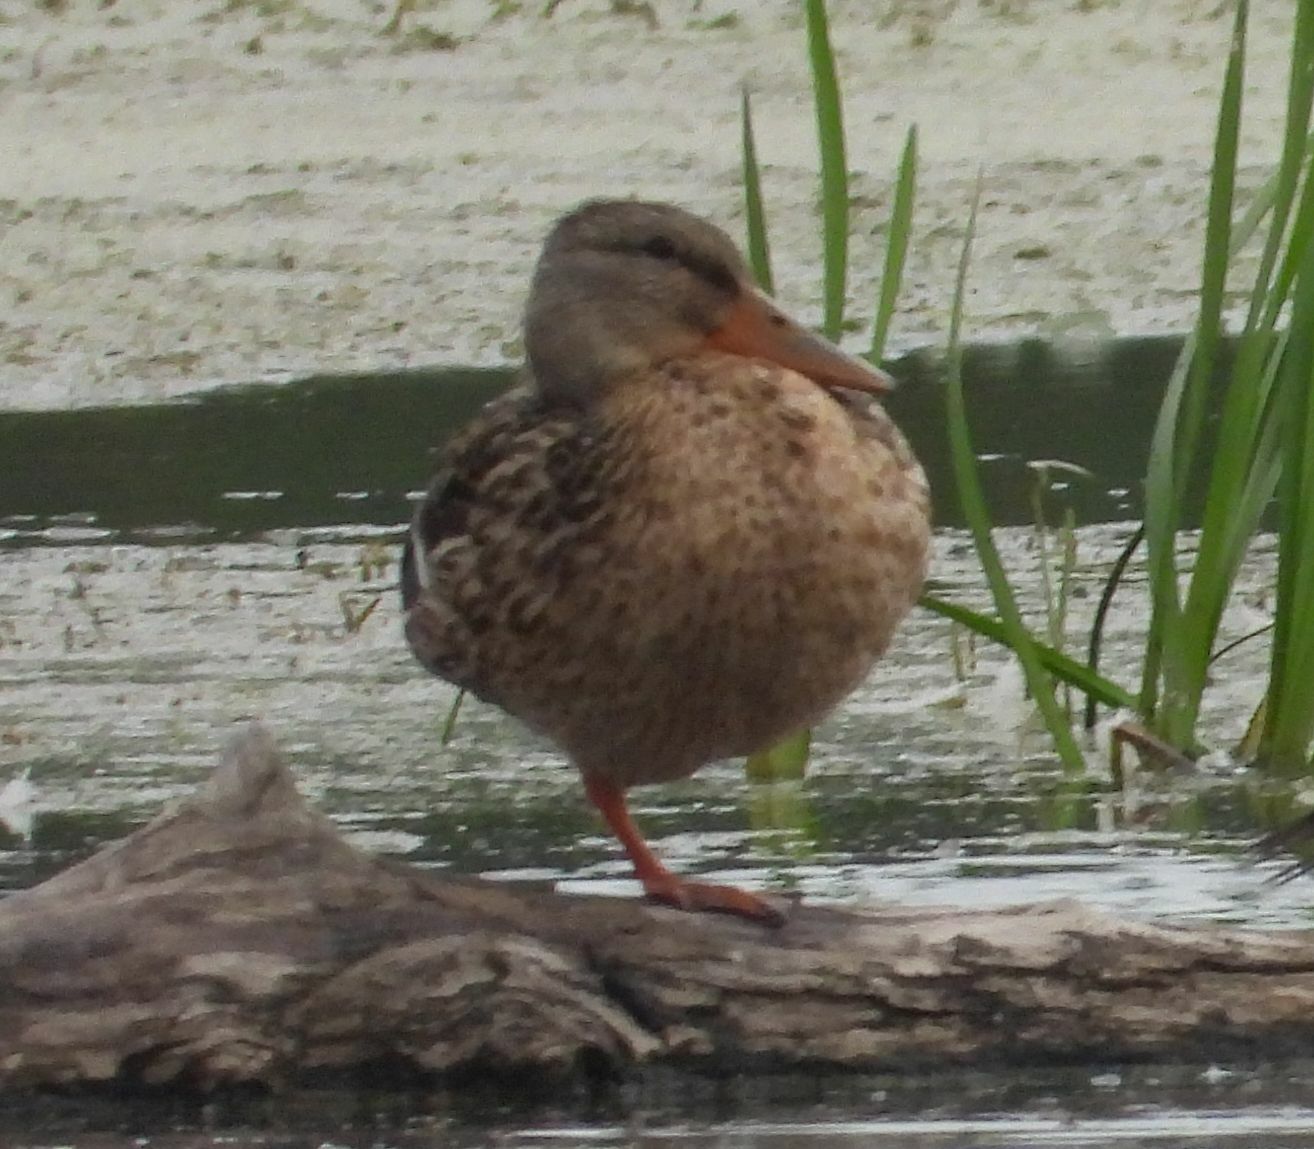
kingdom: Animalia
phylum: Chordata
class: Aves
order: Anseriformes
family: Anatidae
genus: Anas
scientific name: Anas platyrhynchos
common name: Mallard
